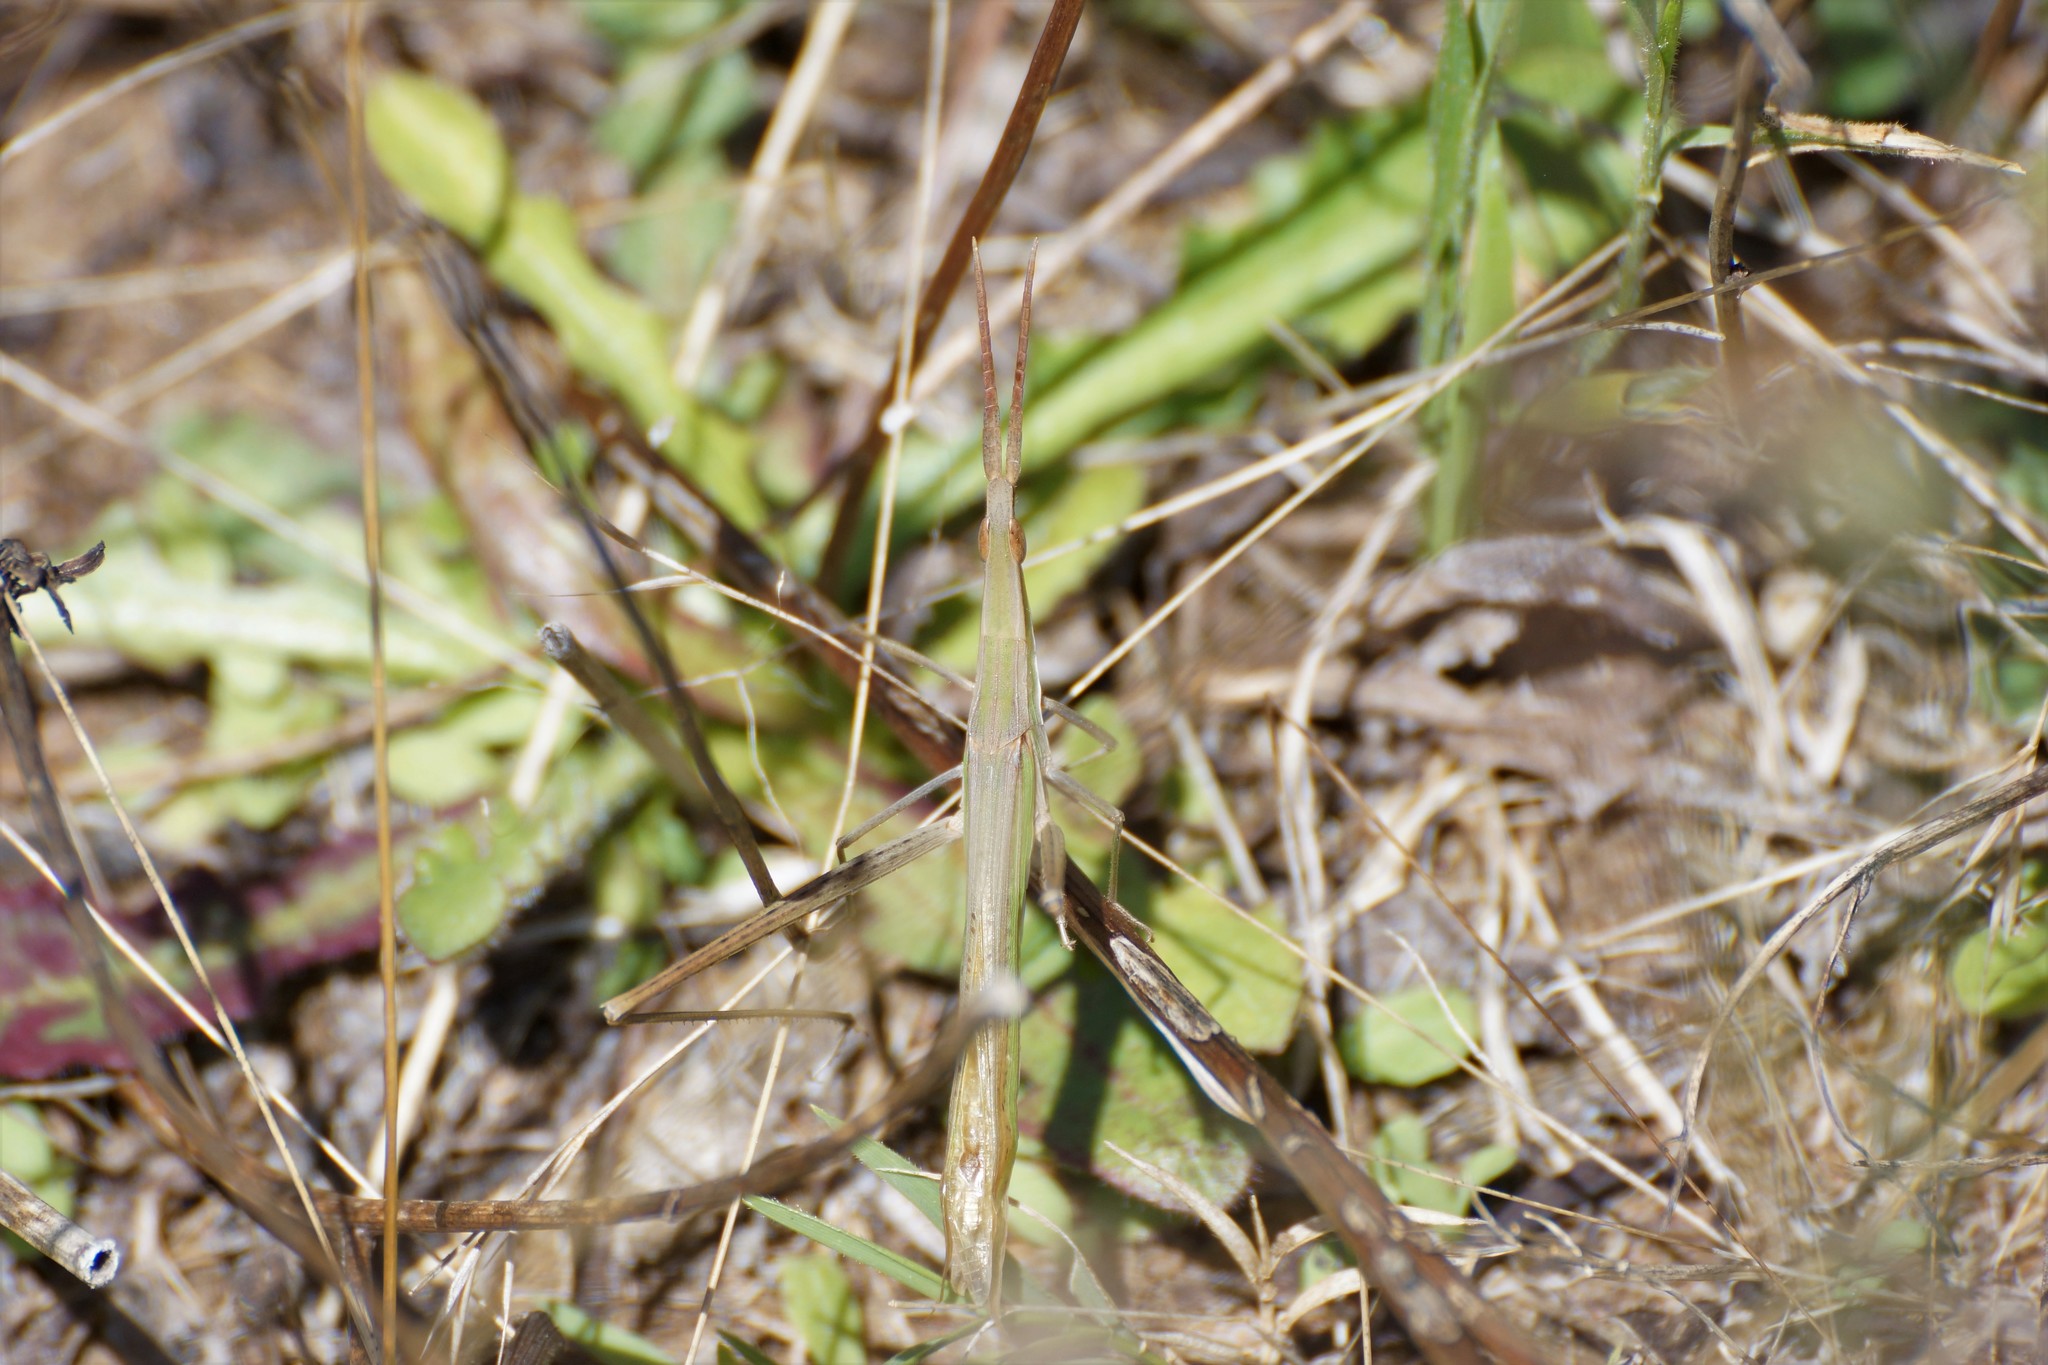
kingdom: Animalia
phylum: Arthropoda
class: Insecta
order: Orthoptera
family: Acrididae
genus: Acrida
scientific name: Acrida conica
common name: Giant green slantface
